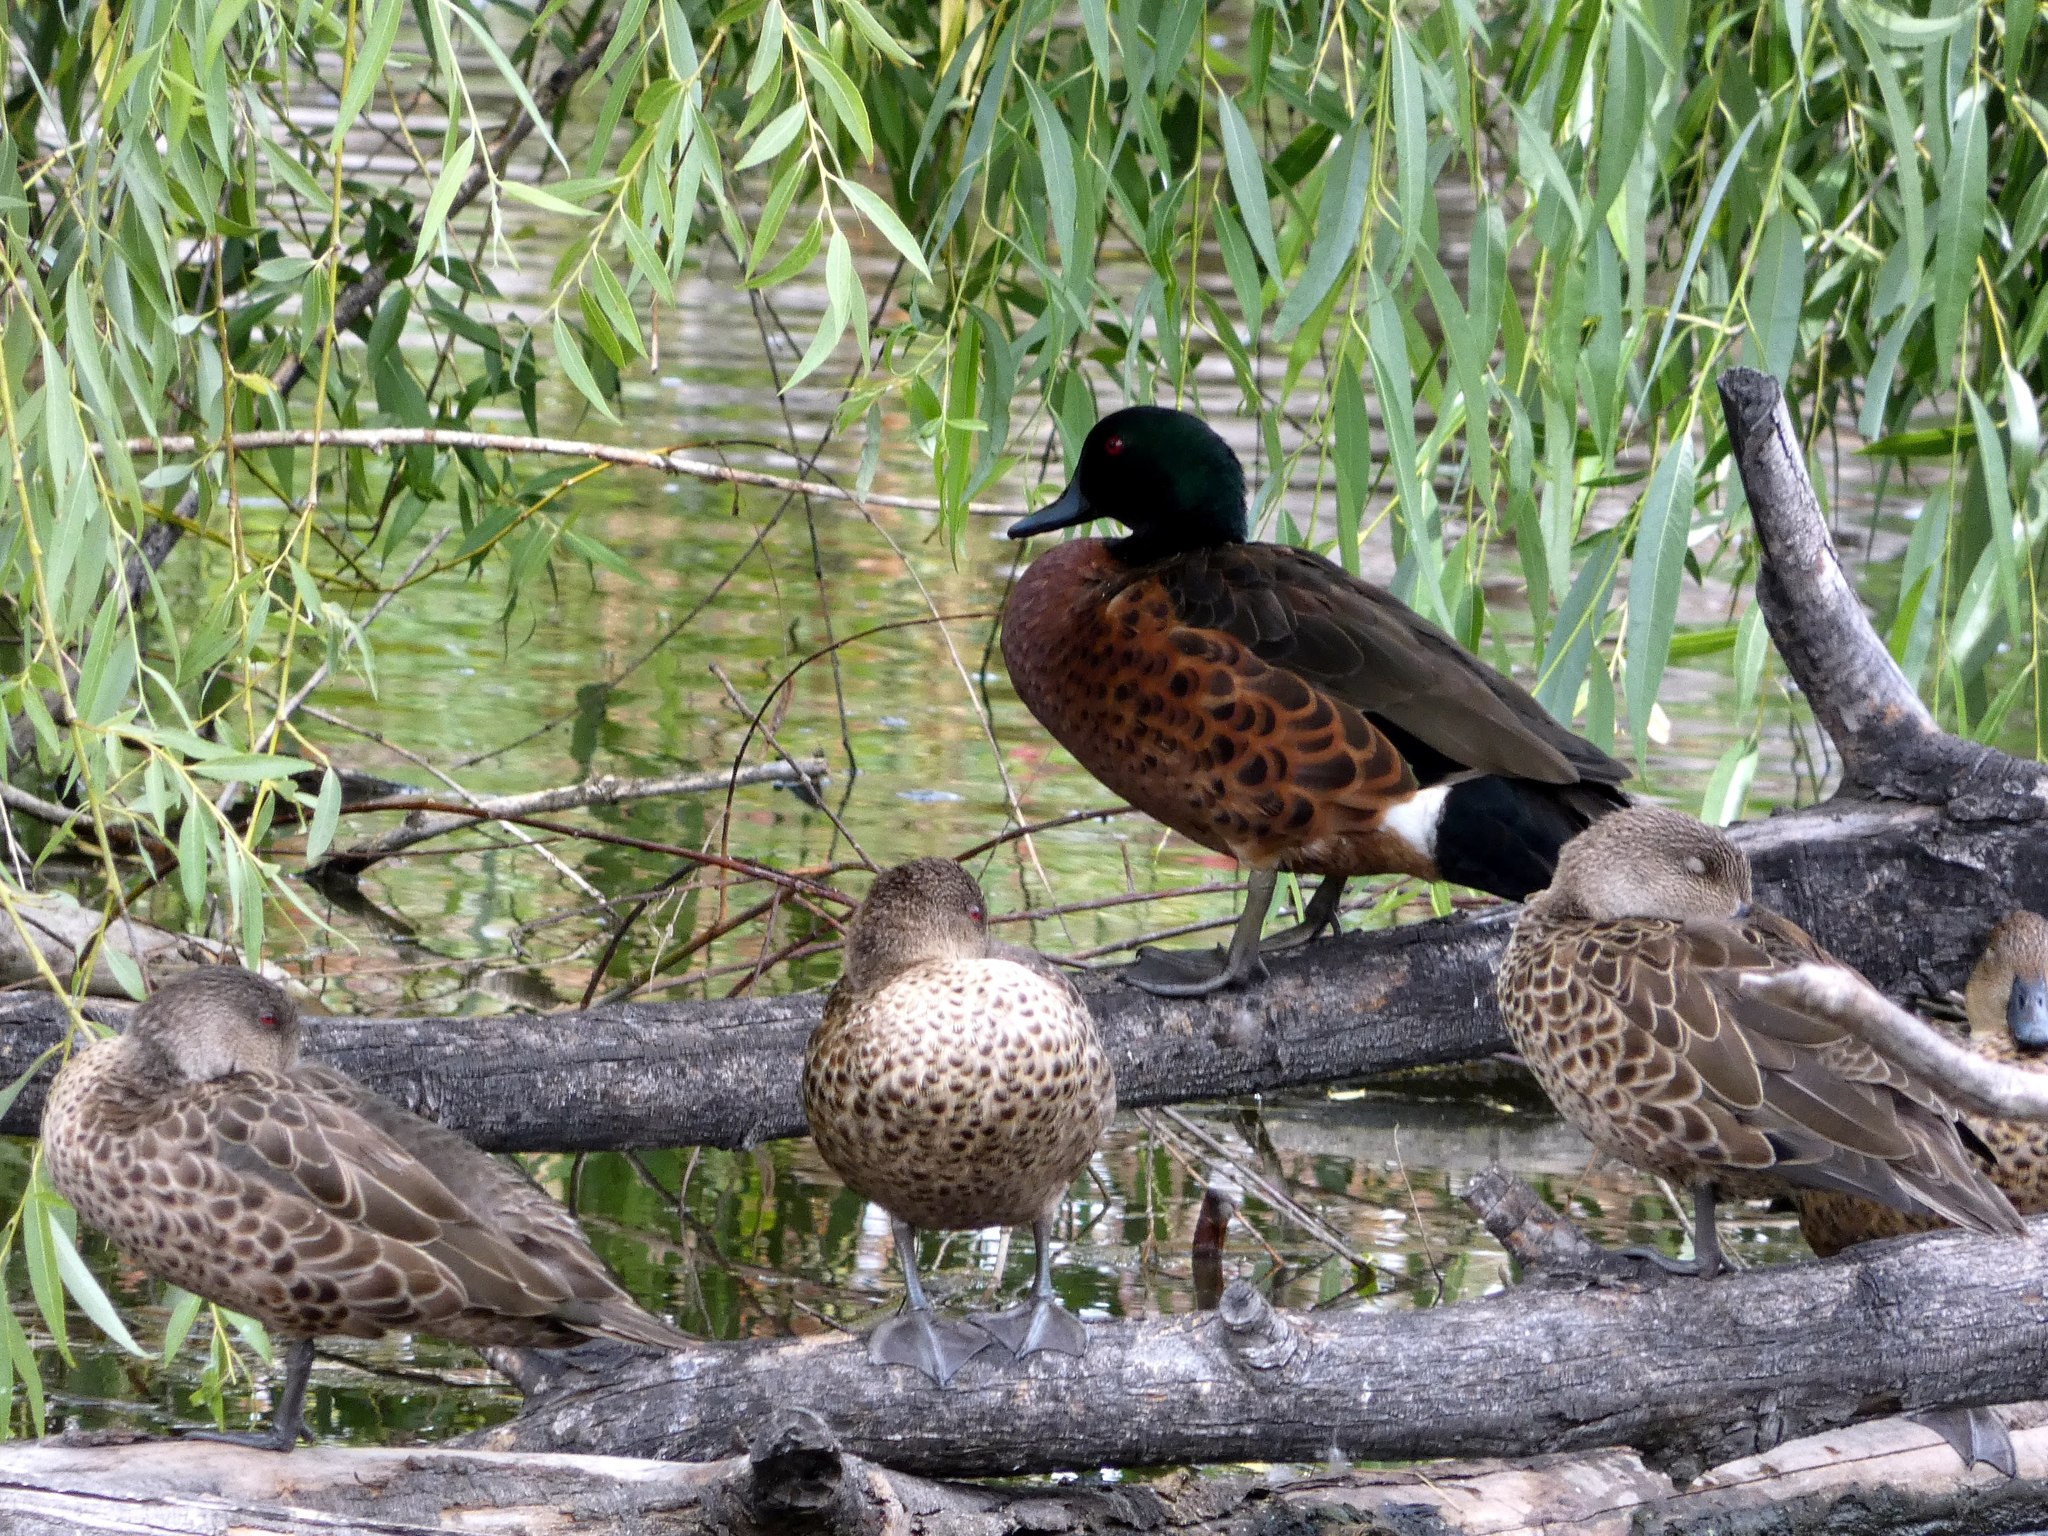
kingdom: Animalia
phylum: Chordata
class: Aves
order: Anseriformes
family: Anatidae
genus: Anas
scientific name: Anas castanea
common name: Chestnut teal
